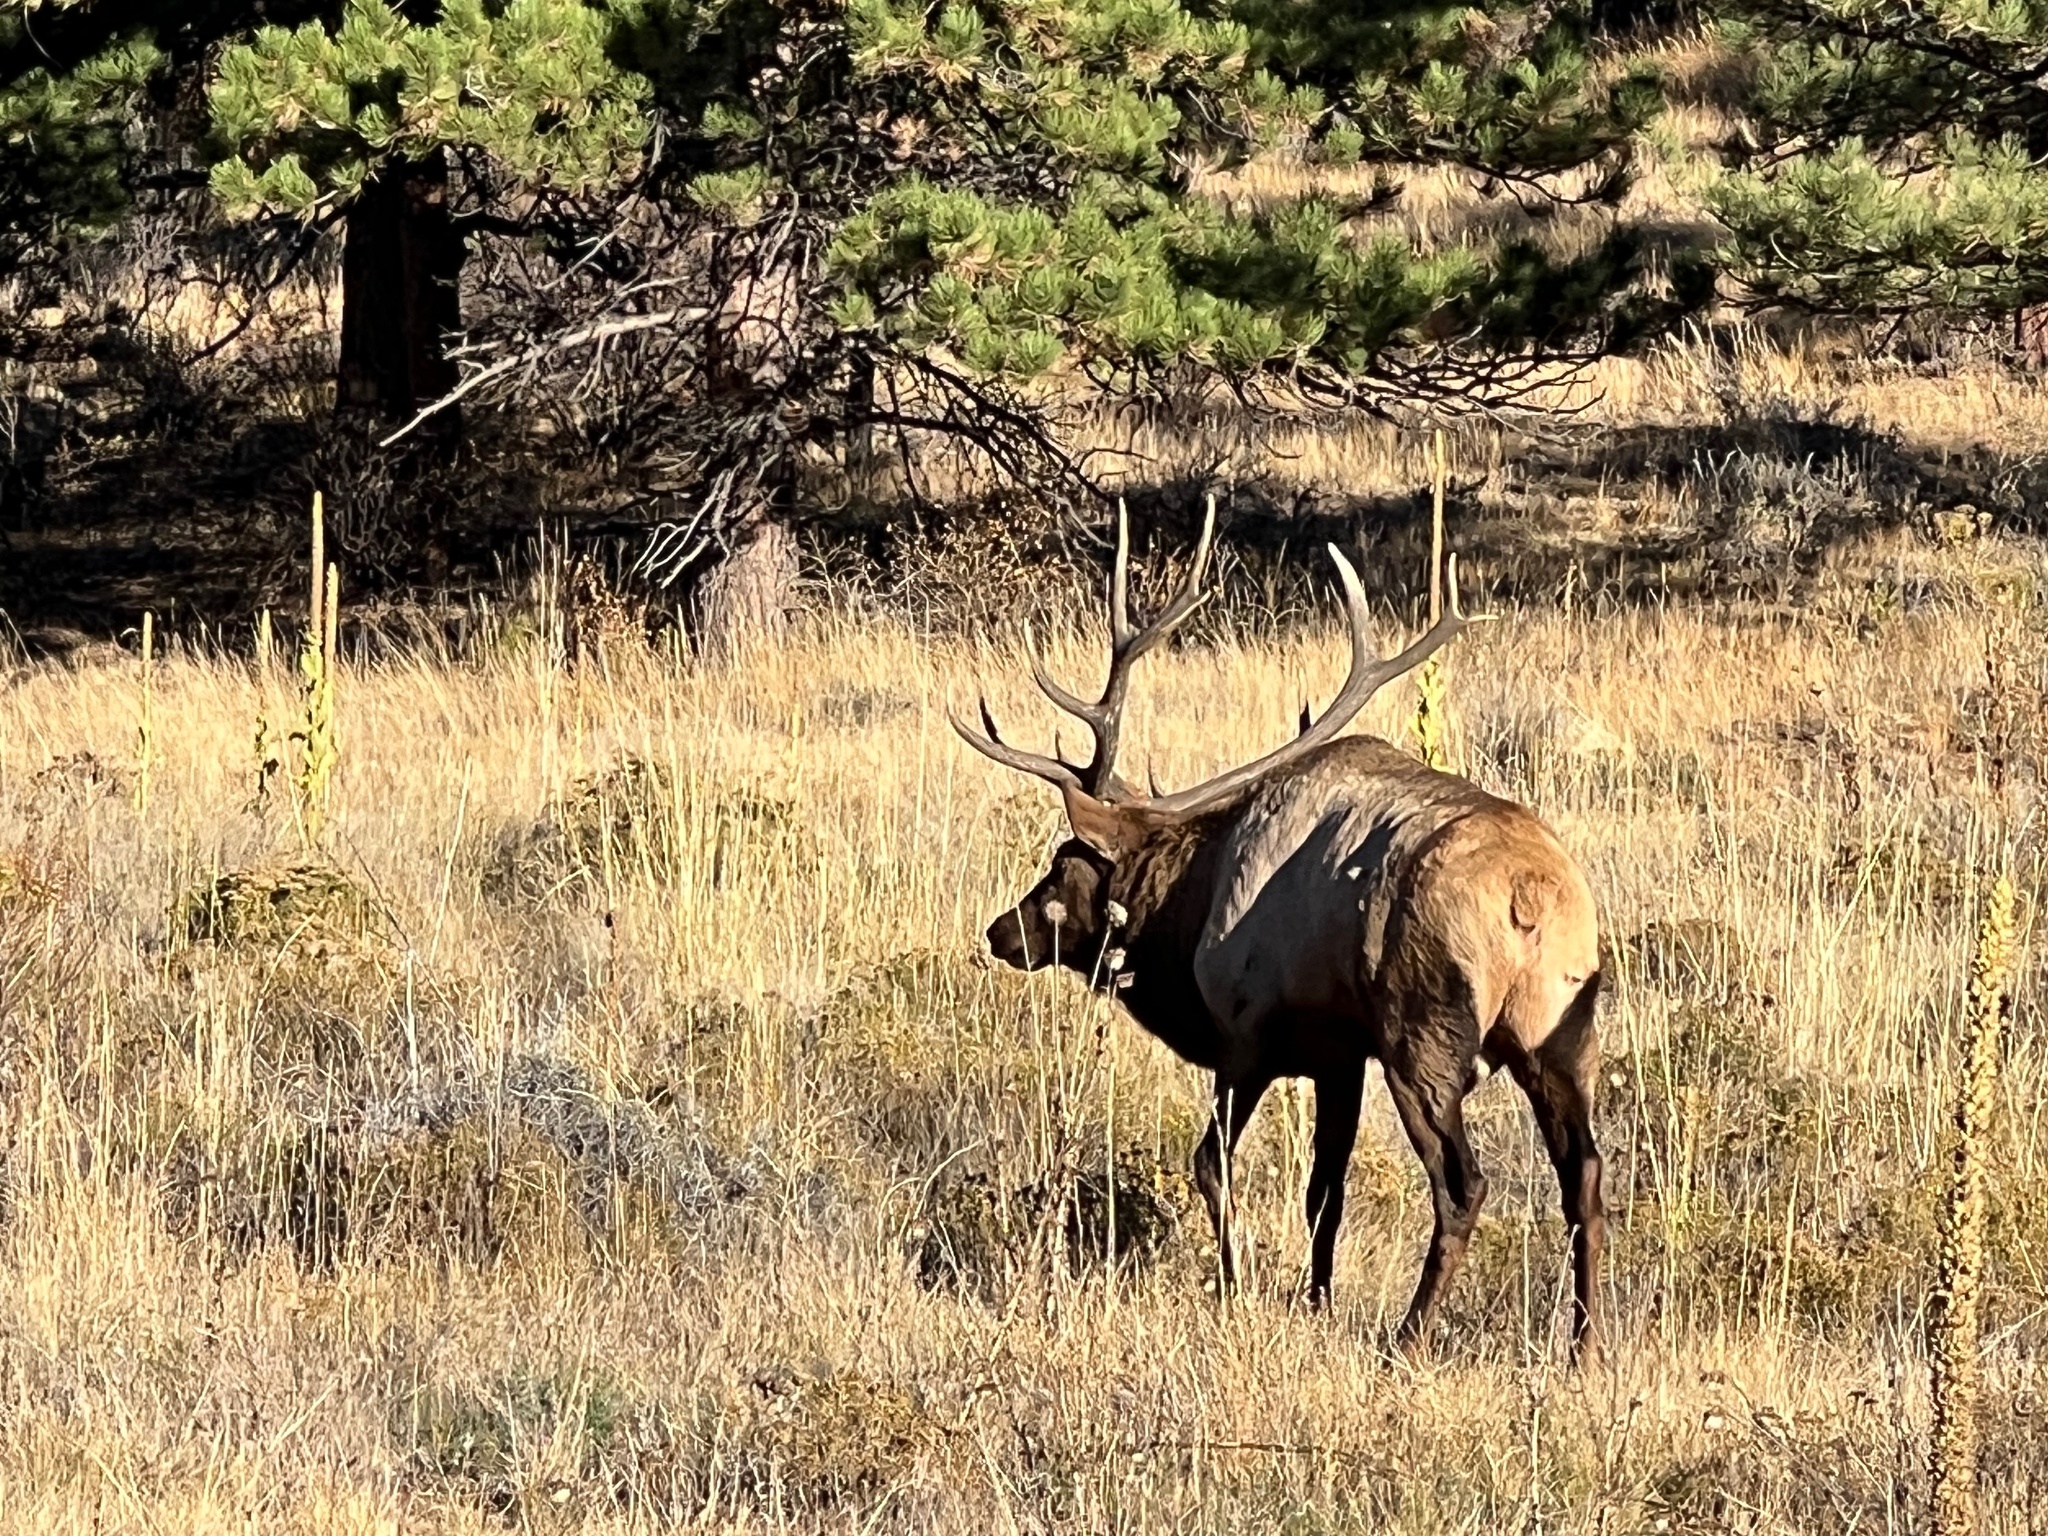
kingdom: Animalia
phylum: Chordata
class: Mammalia
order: Artiodactyla
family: Cervidae
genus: Cervus
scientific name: Cervus elaphus
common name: Red deer
